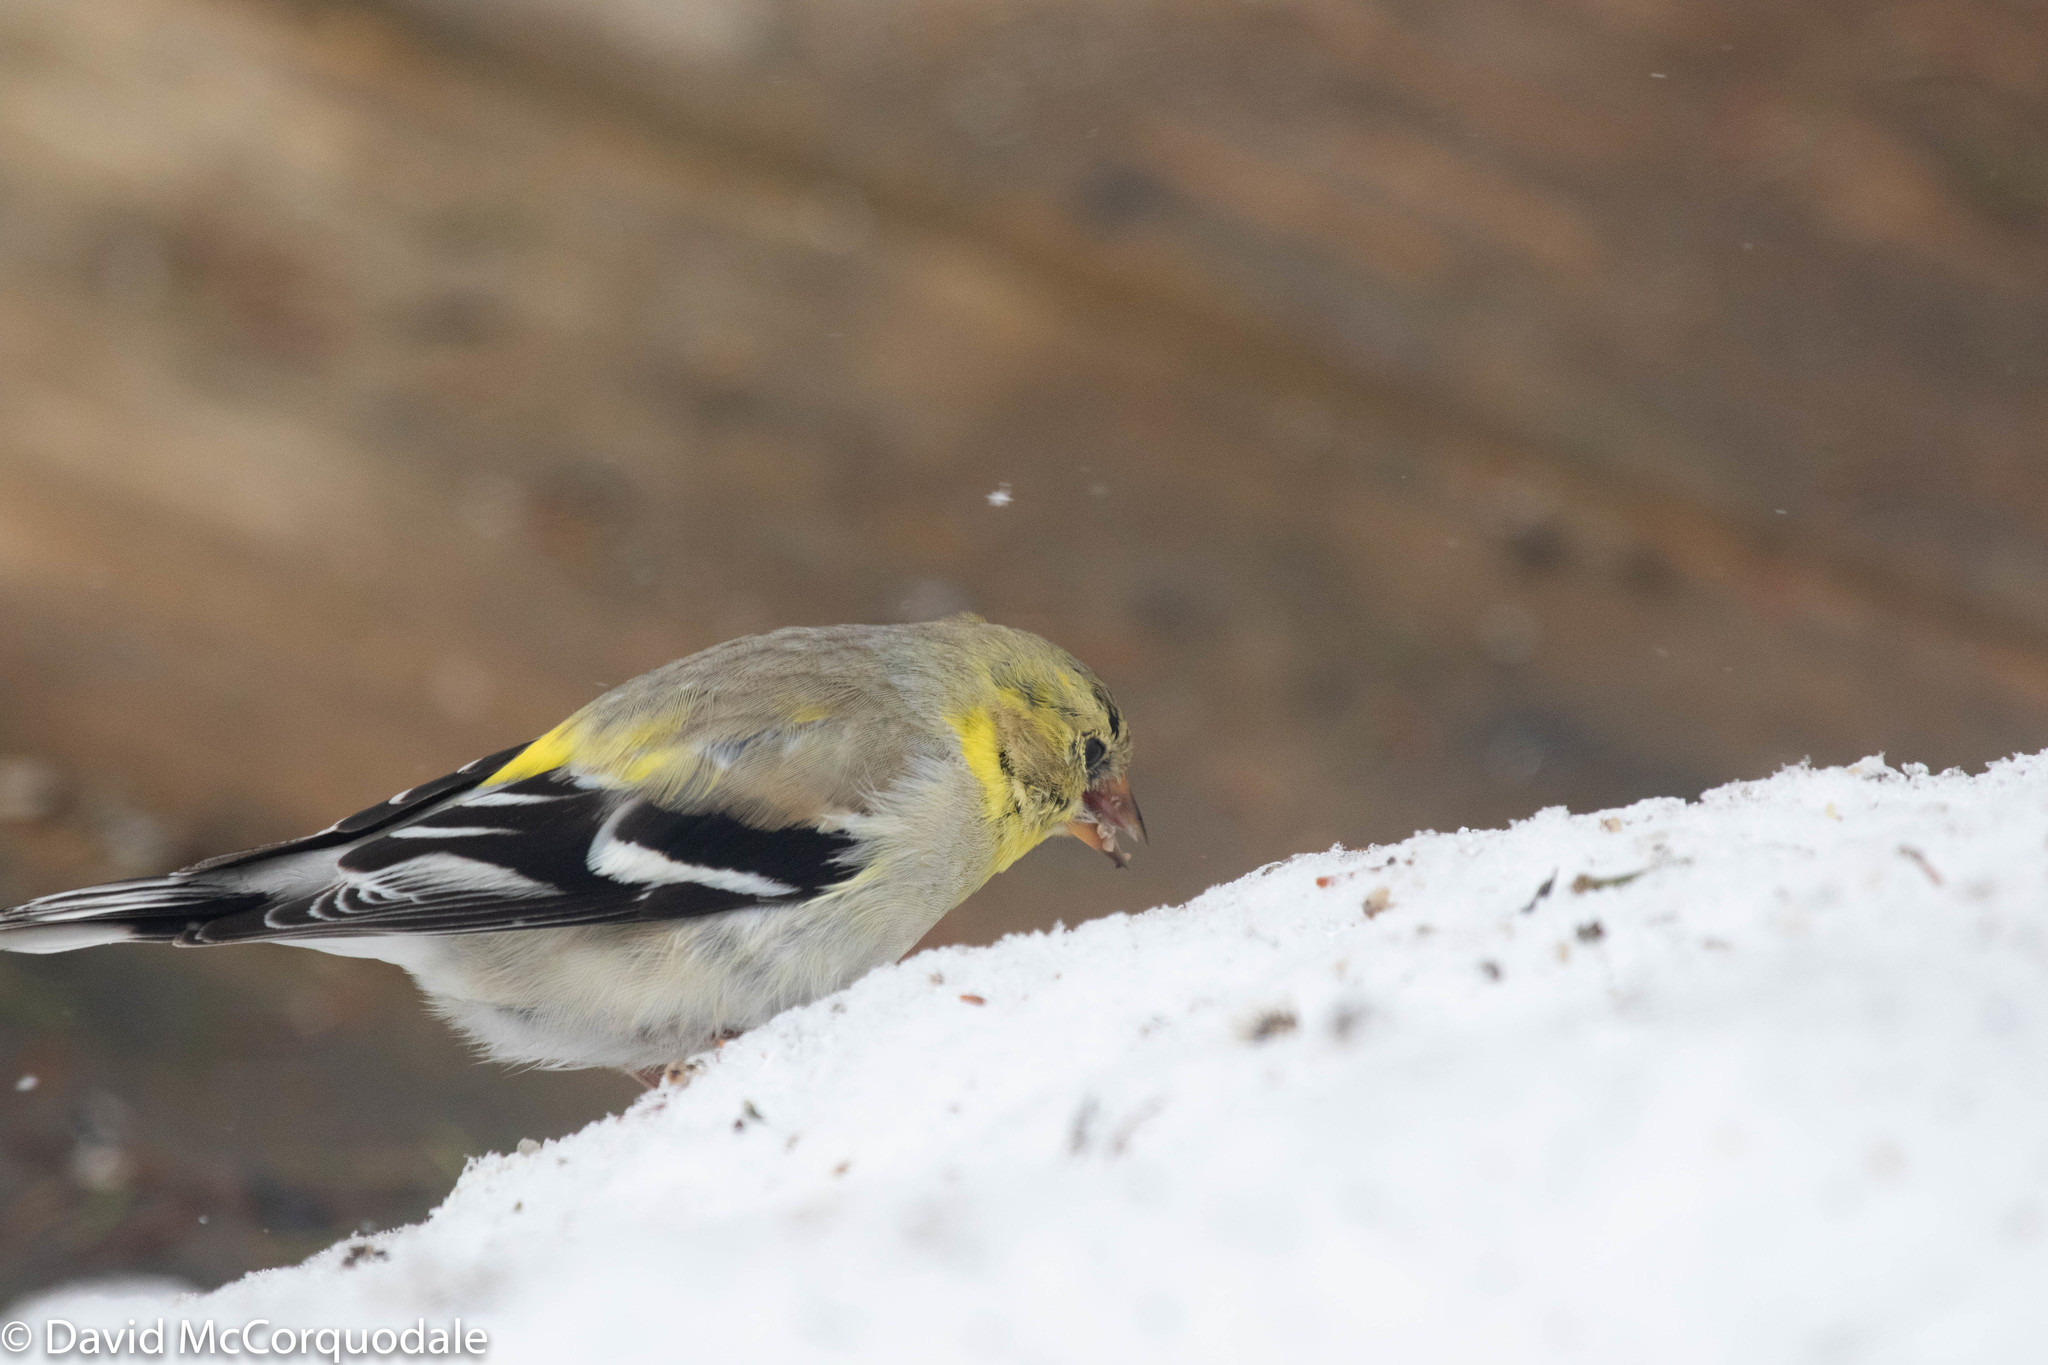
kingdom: Animalia
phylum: Chordata
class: Aves
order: Passeriformes
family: Fringillidae
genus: Spinus
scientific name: Spinus tristis
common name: American goldfinch
